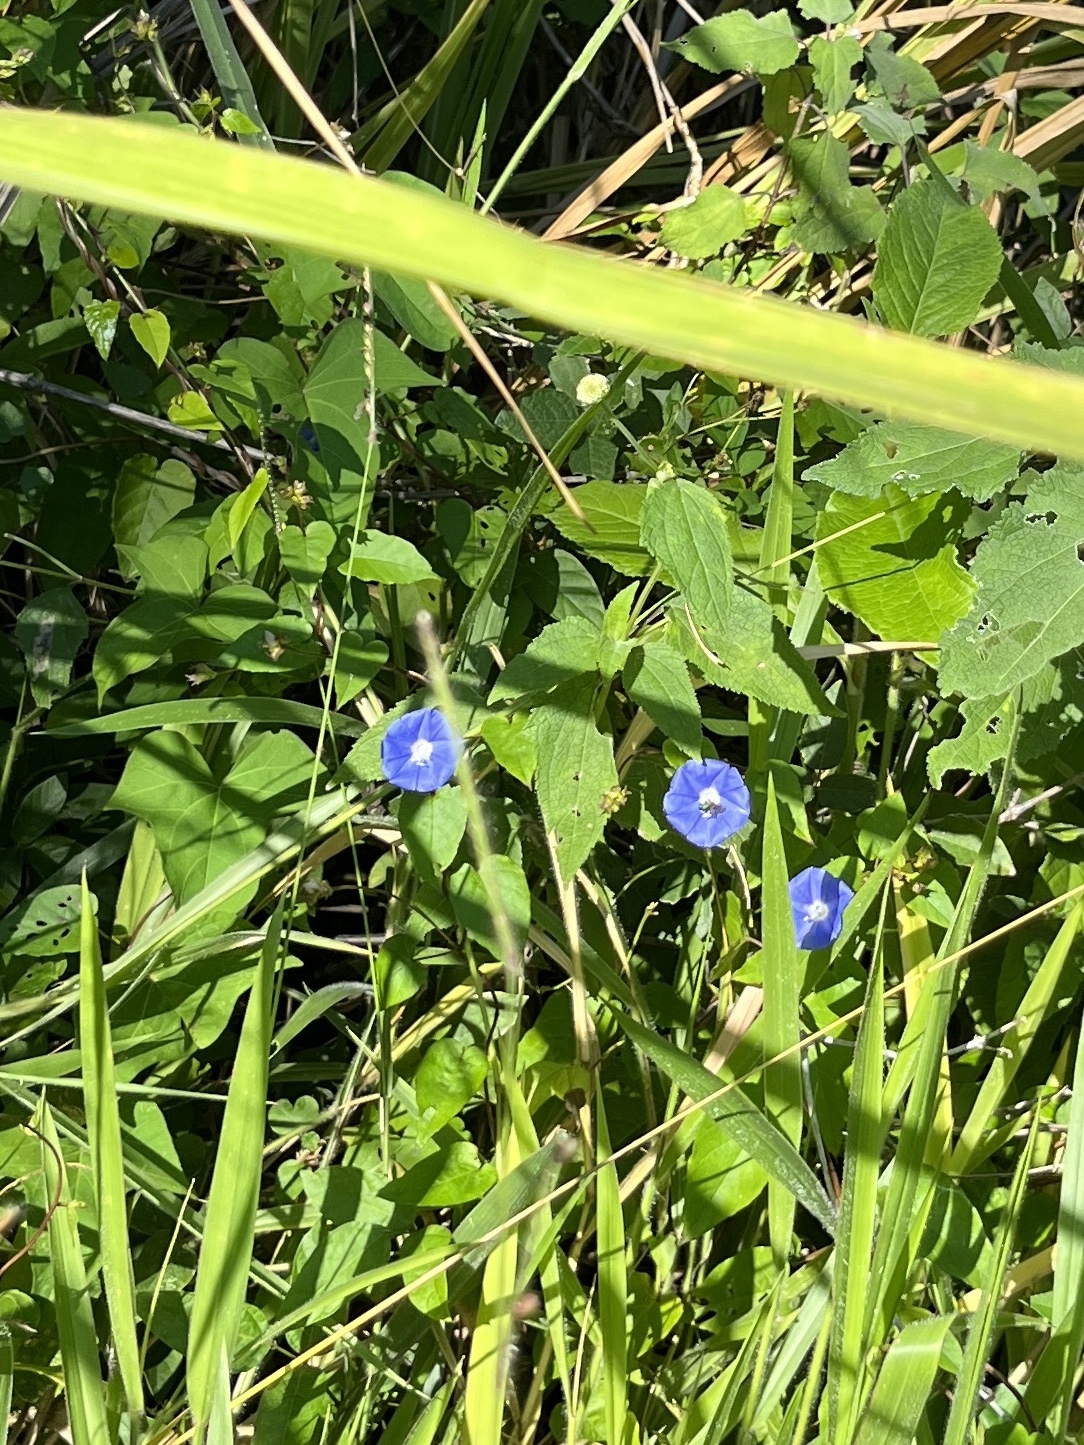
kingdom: Plantae
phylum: Tracheophyta
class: Magnoliopsida
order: Solanales
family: Convolvulaceae
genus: Jacquemontia
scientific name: Jacquemontia pentanthos
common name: Skyblue clustervine
